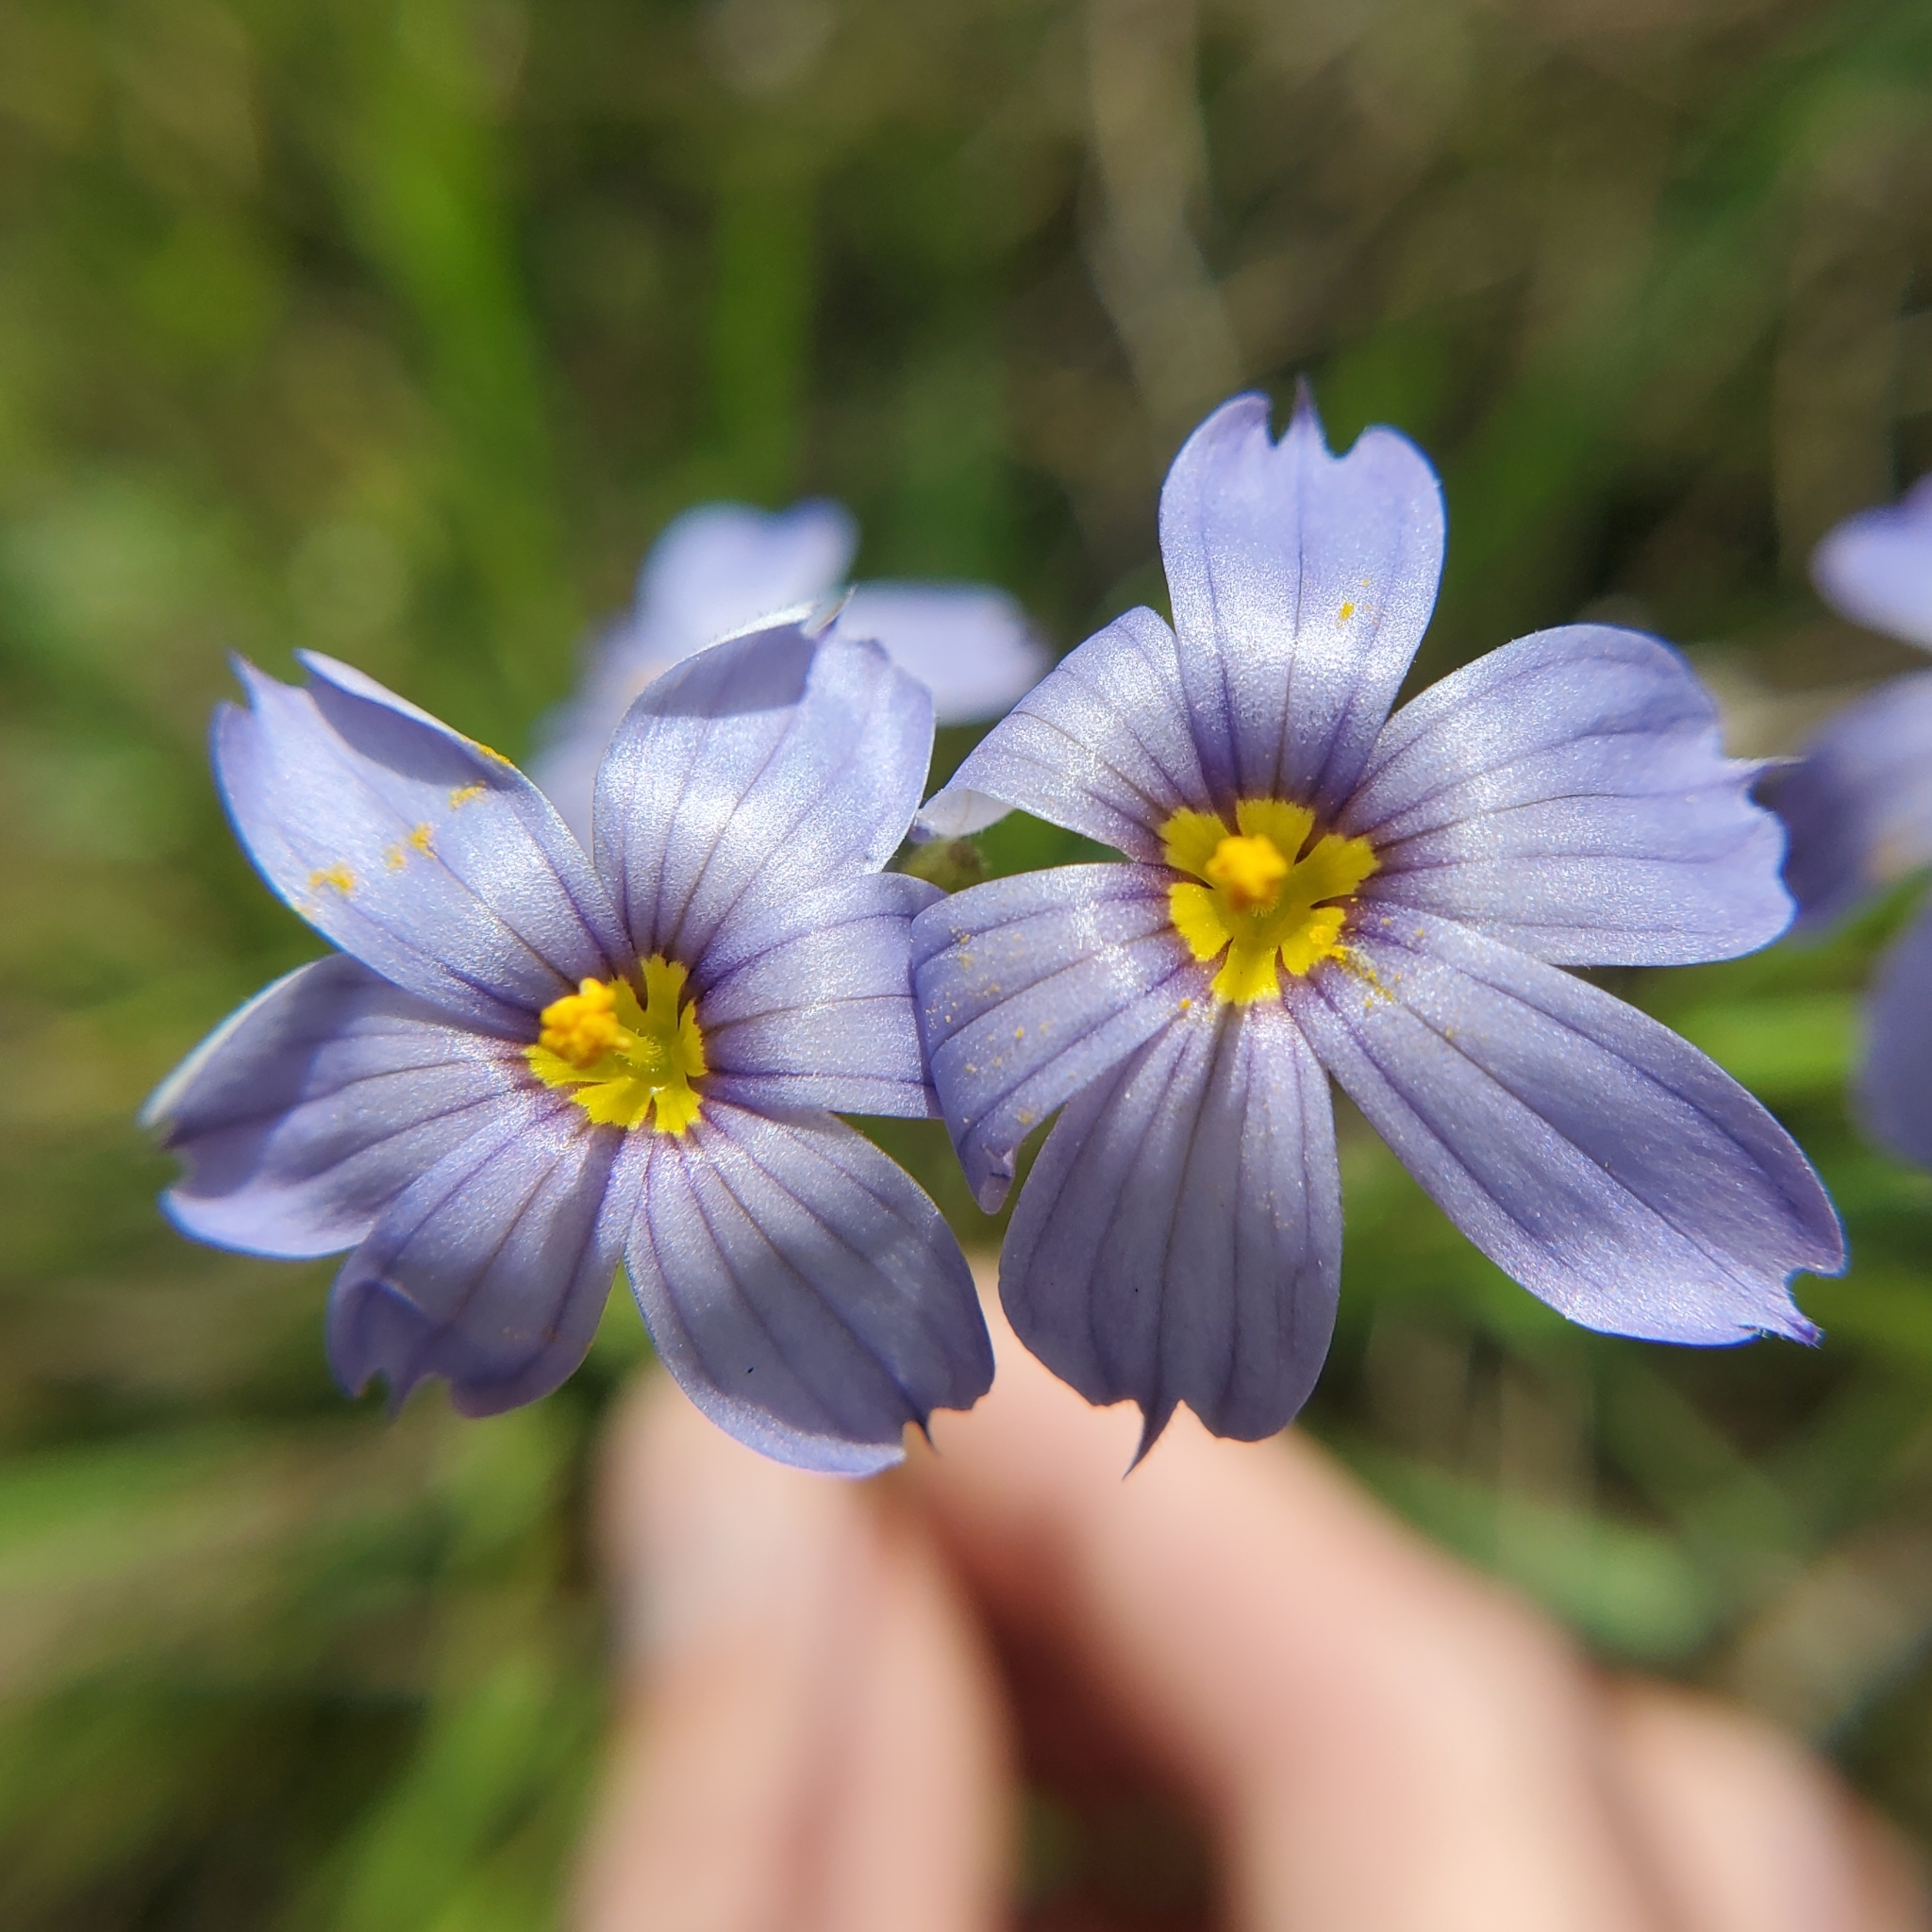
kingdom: Plantae
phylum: Tracheophyta
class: Liliopsida
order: Asparagales
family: Iridaceae
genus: Sisyrinchium
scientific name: Sisyrinchium bellum
